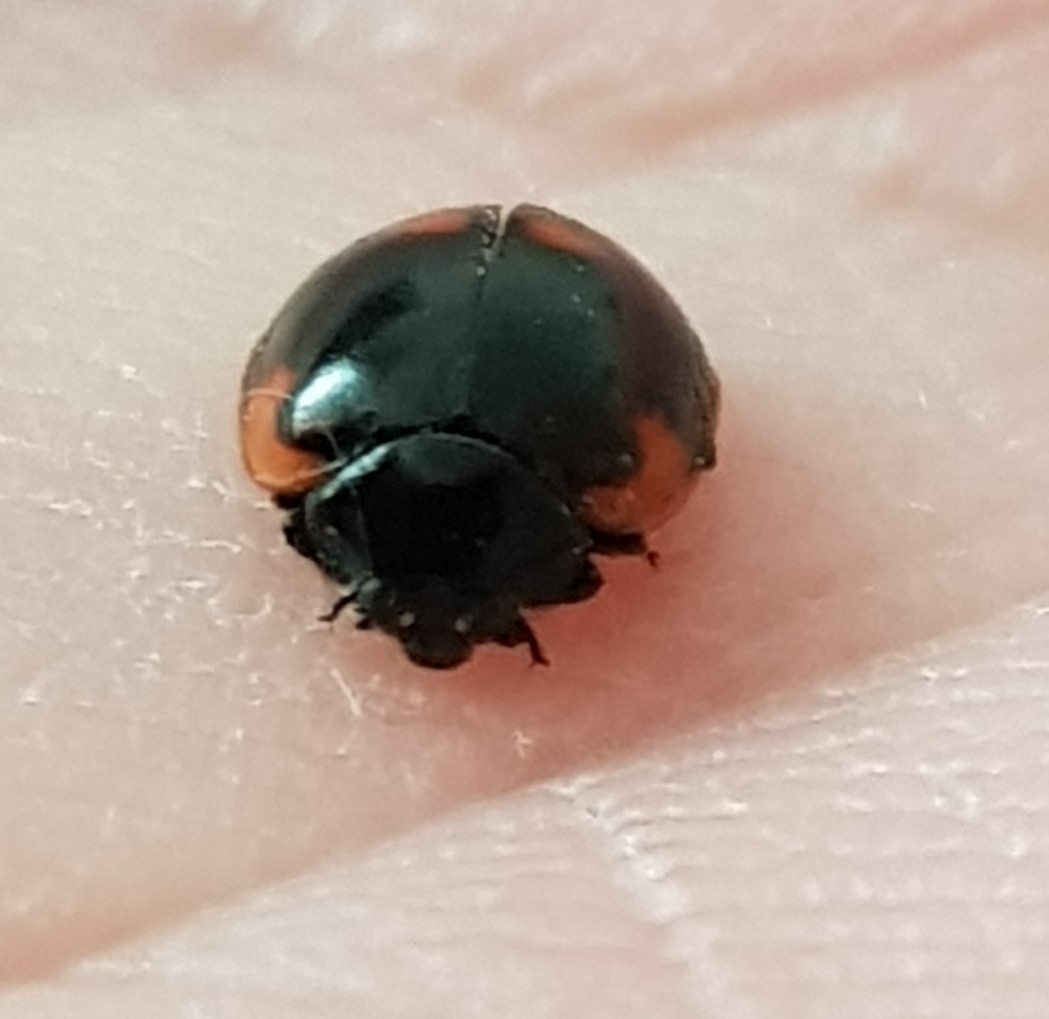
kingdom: Animalia
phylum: Arthropoda
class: Insecta
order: Coleoptera
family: Coccinellidae
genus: Adalia
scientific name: Adalia bipunctata
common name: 2-spot ladybird
